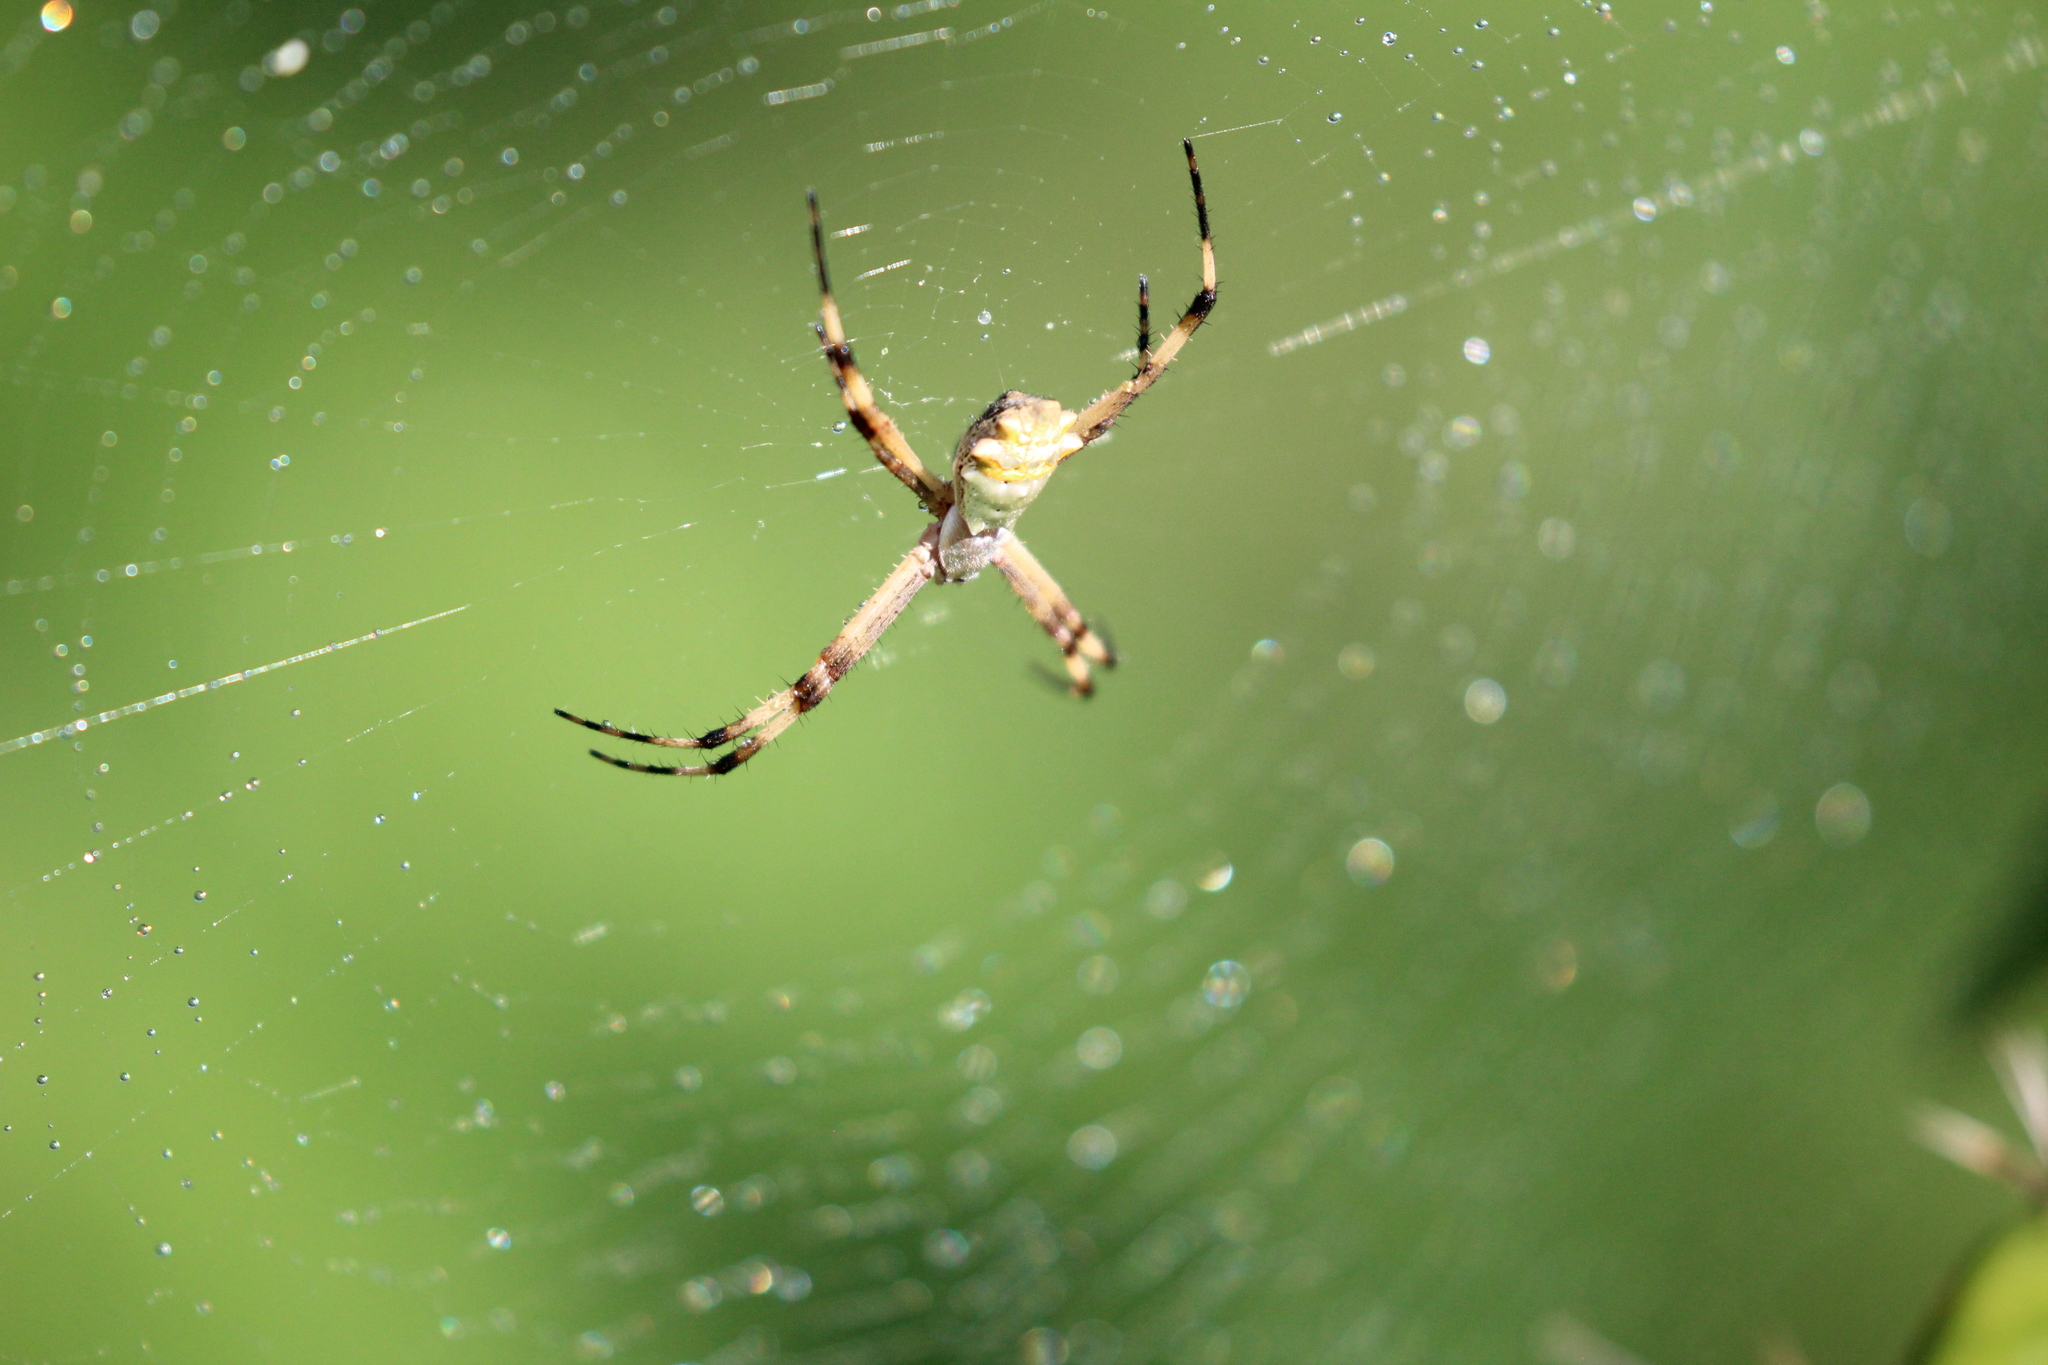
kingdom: Animalia
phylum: Arthropoda
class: Arachnida
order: Araneae
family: Araneidae
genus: Argiope
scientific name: Argiope argentata
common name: Orb weavers
